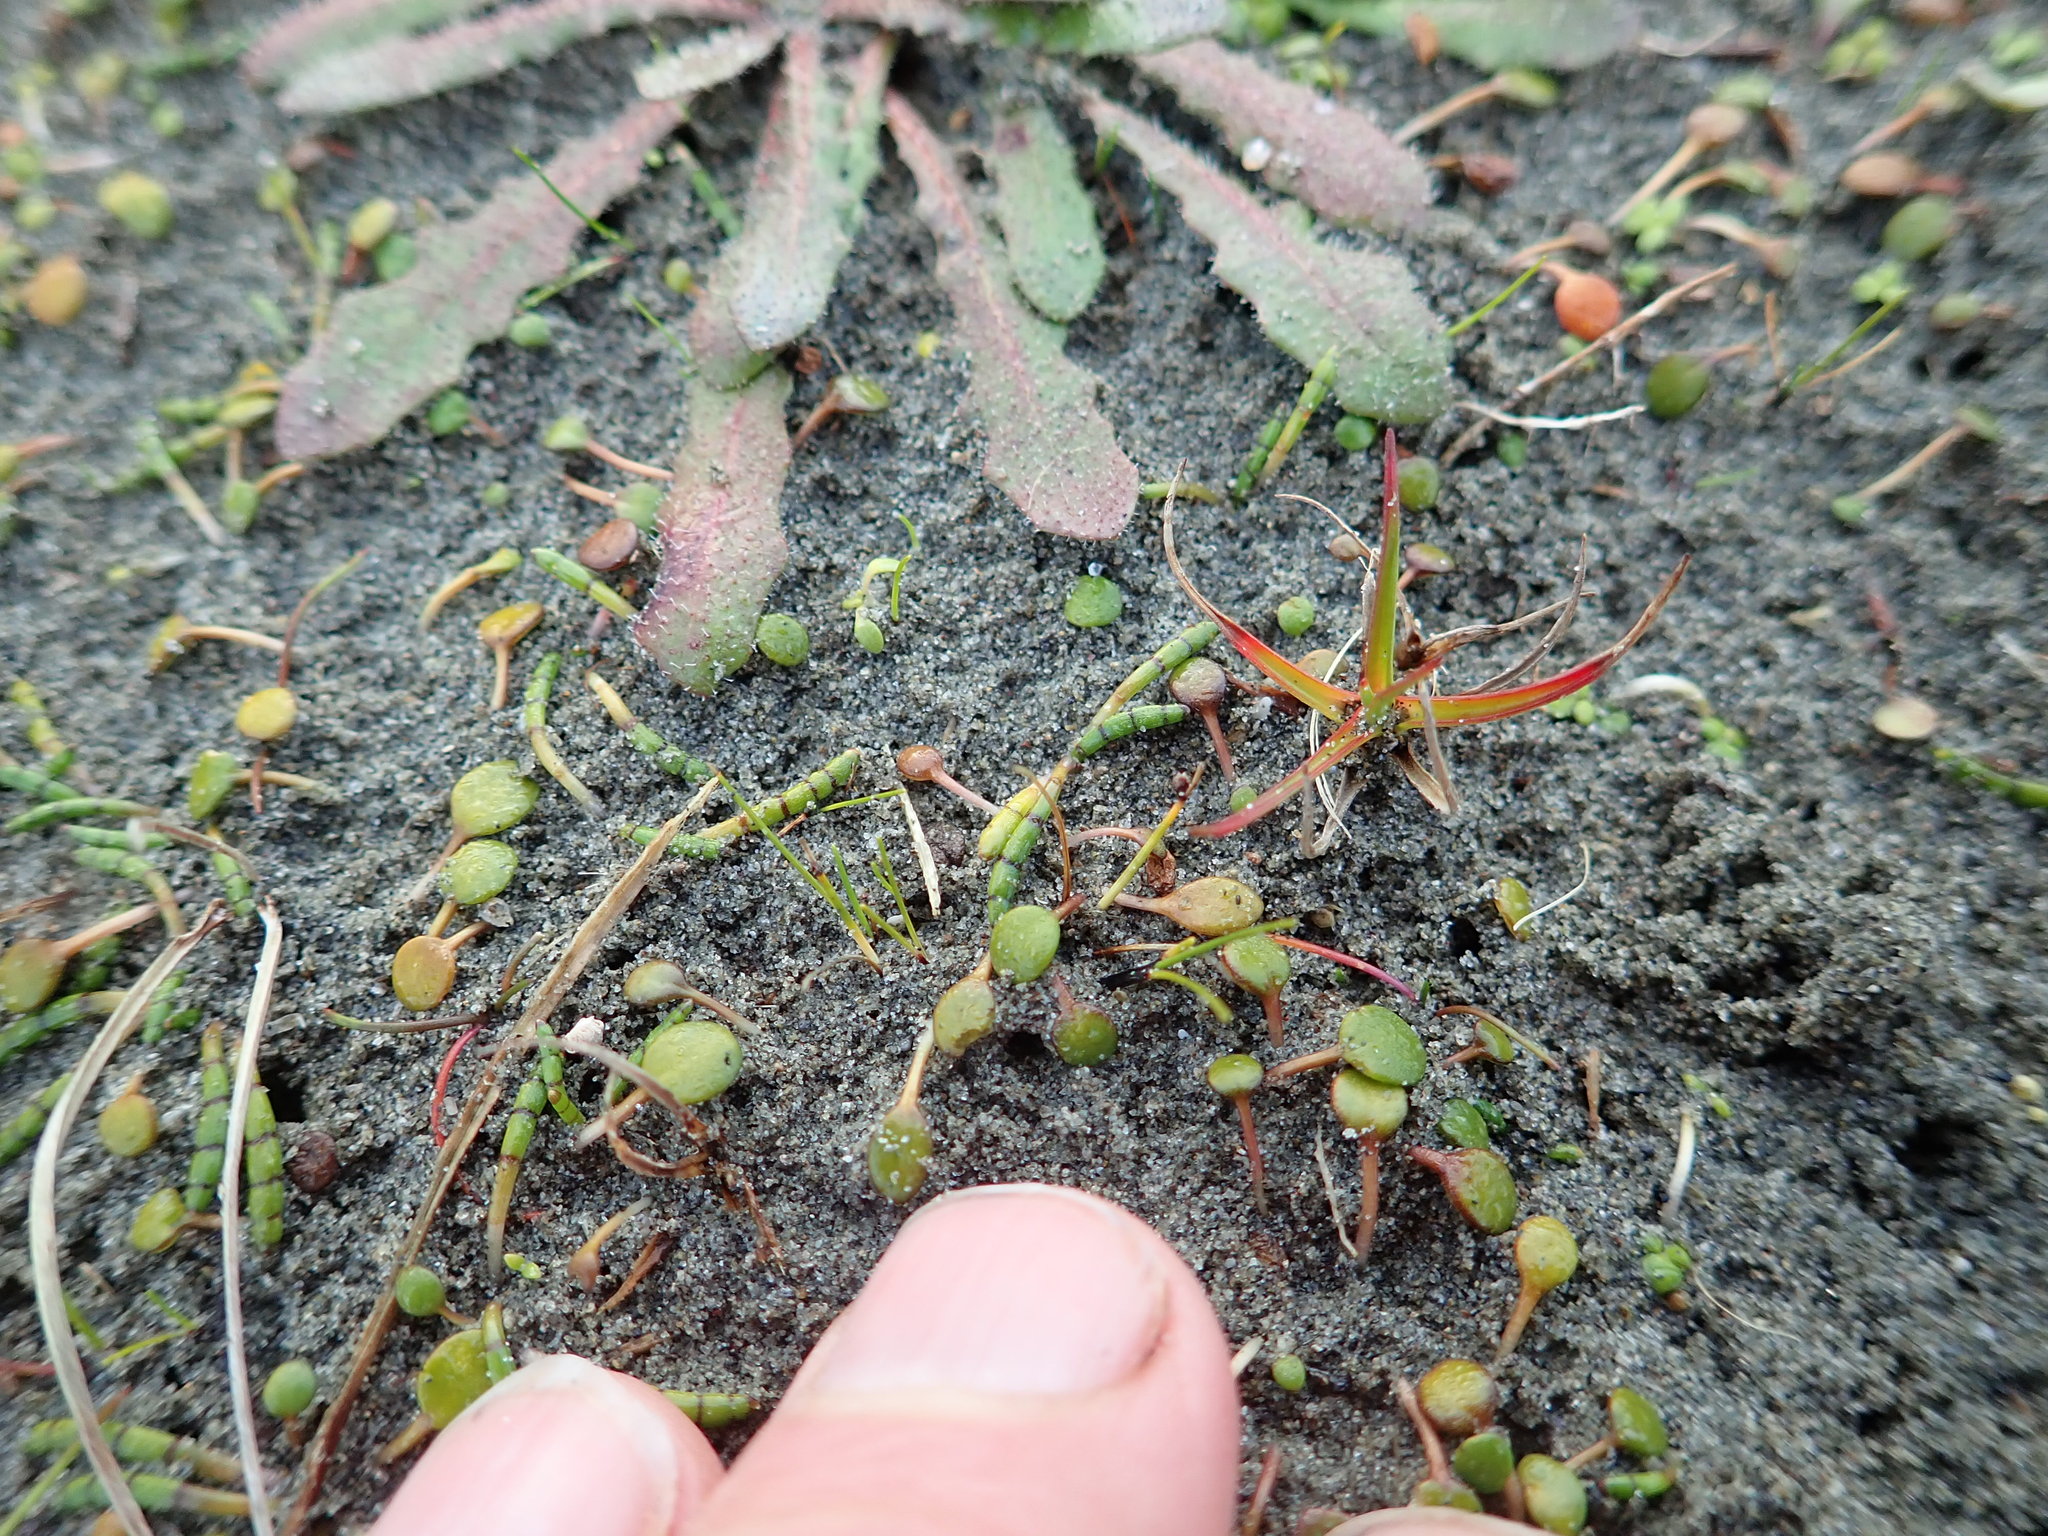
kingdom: Plantae
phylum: Tracheophyta
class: Magnoliopsida
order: Apiales
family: Apiaceae
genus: Lilaeopsis
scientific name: Lilaeopsis novae-zelandiae
